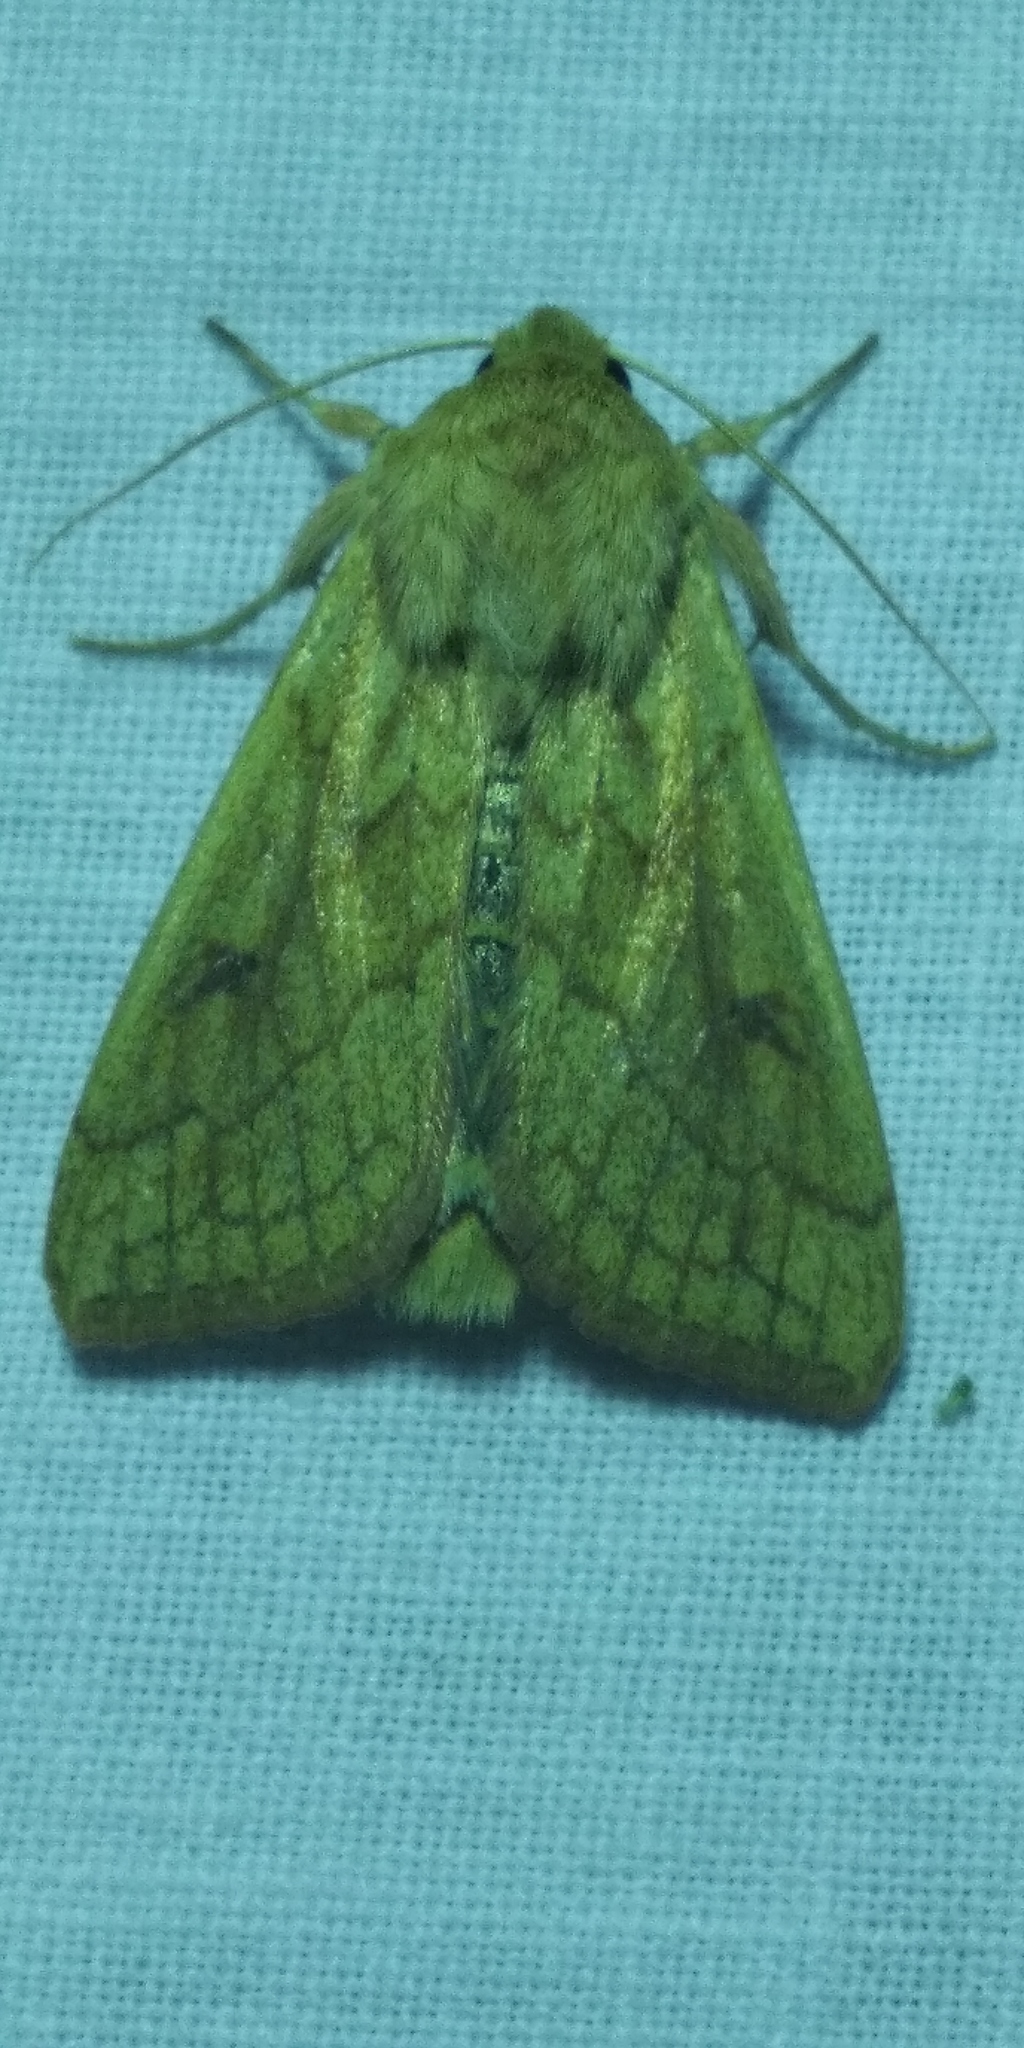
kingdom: Animalia
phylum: Arthropoda
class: Insecta
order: Lepidoptera
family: Noctuidae
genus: Mythimna
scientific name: Mythimna vitellina
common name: Delicate
